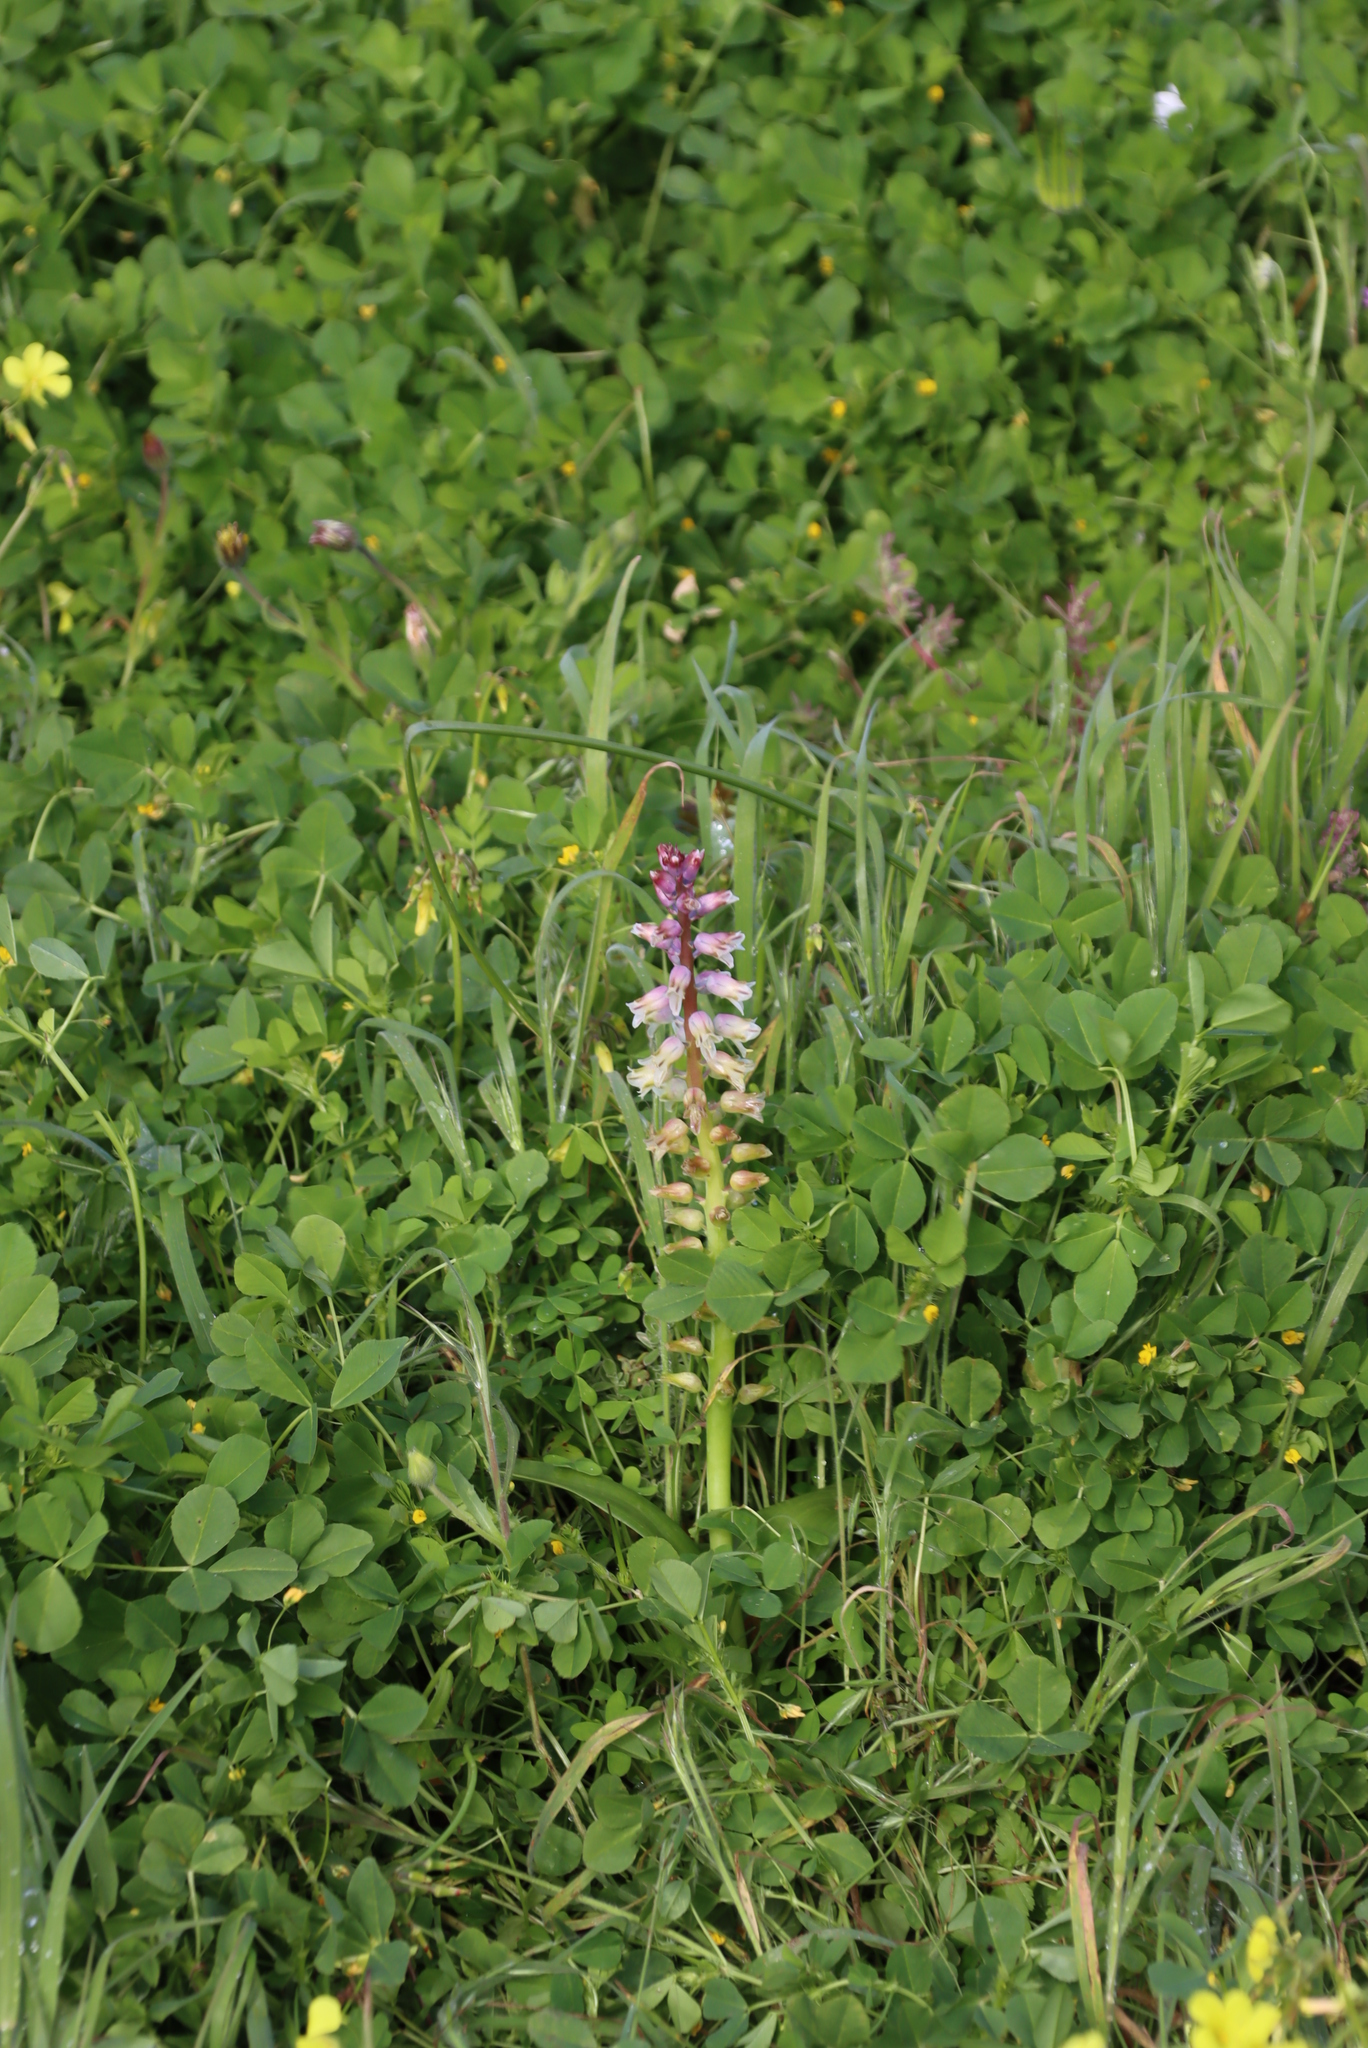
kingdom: Plantae
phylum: Tracheophyta
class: Liliopsida
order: Asparagales
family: Asparagaceae
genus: Lachenalia
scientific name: Lachenalia pallida
